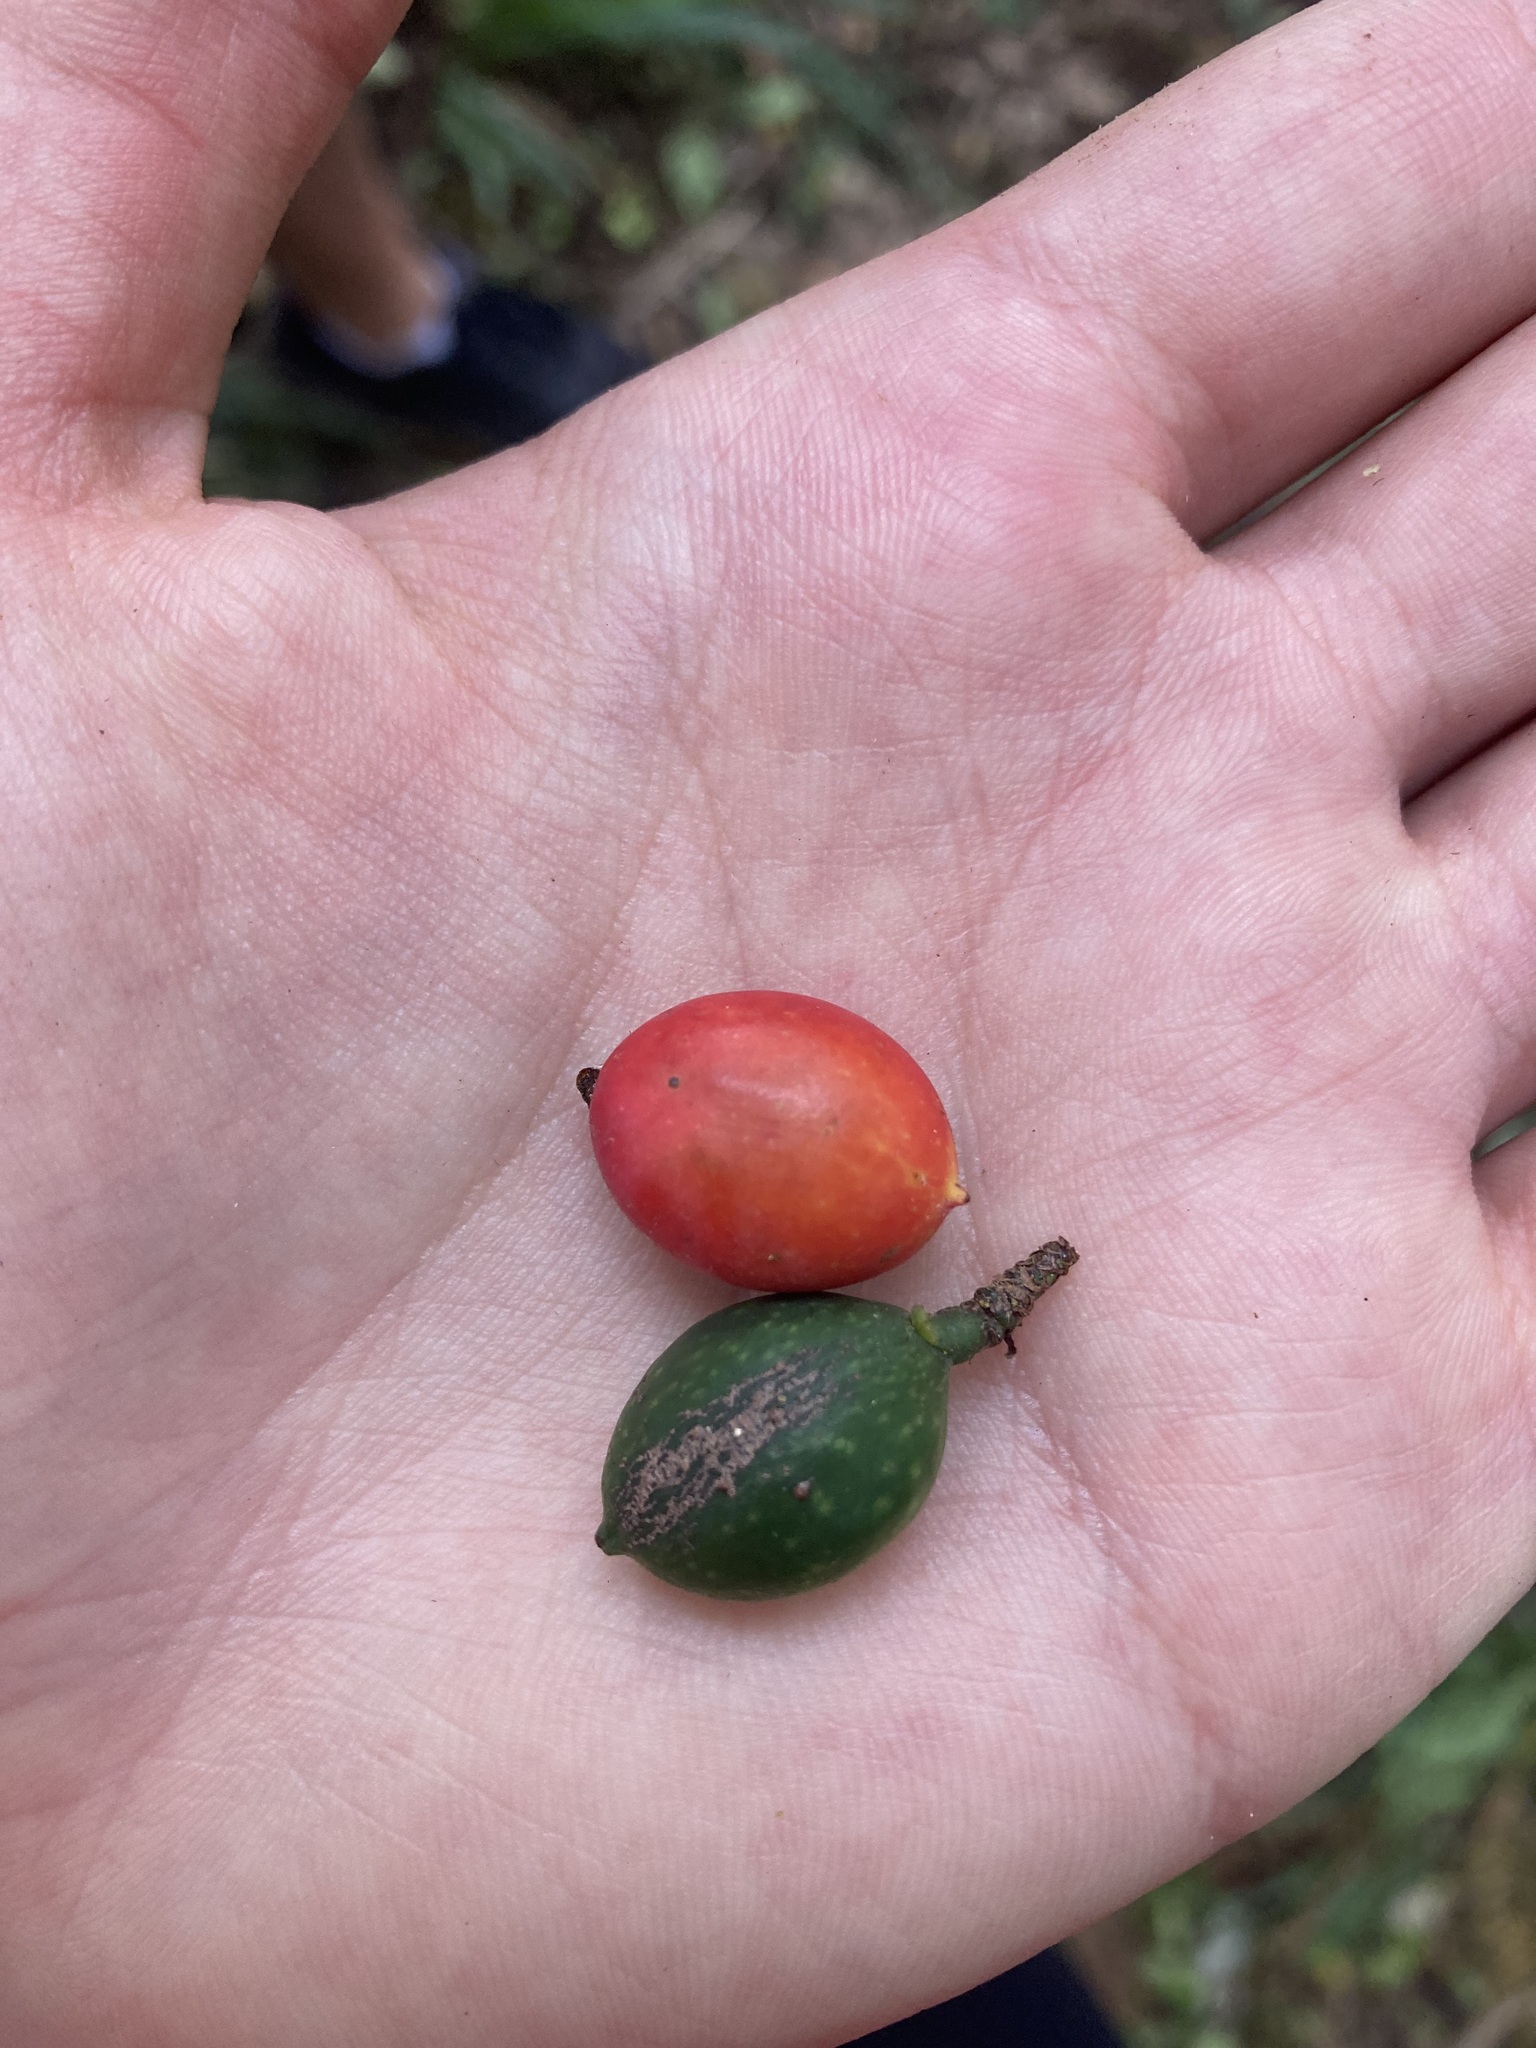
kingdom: Plantae
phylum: Tracheophyta
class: Pinopsida
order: Pinales
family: Podocarpaceae
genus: Prumnopitys
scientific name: Prumnopitys ferruginea
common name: Brown pine
